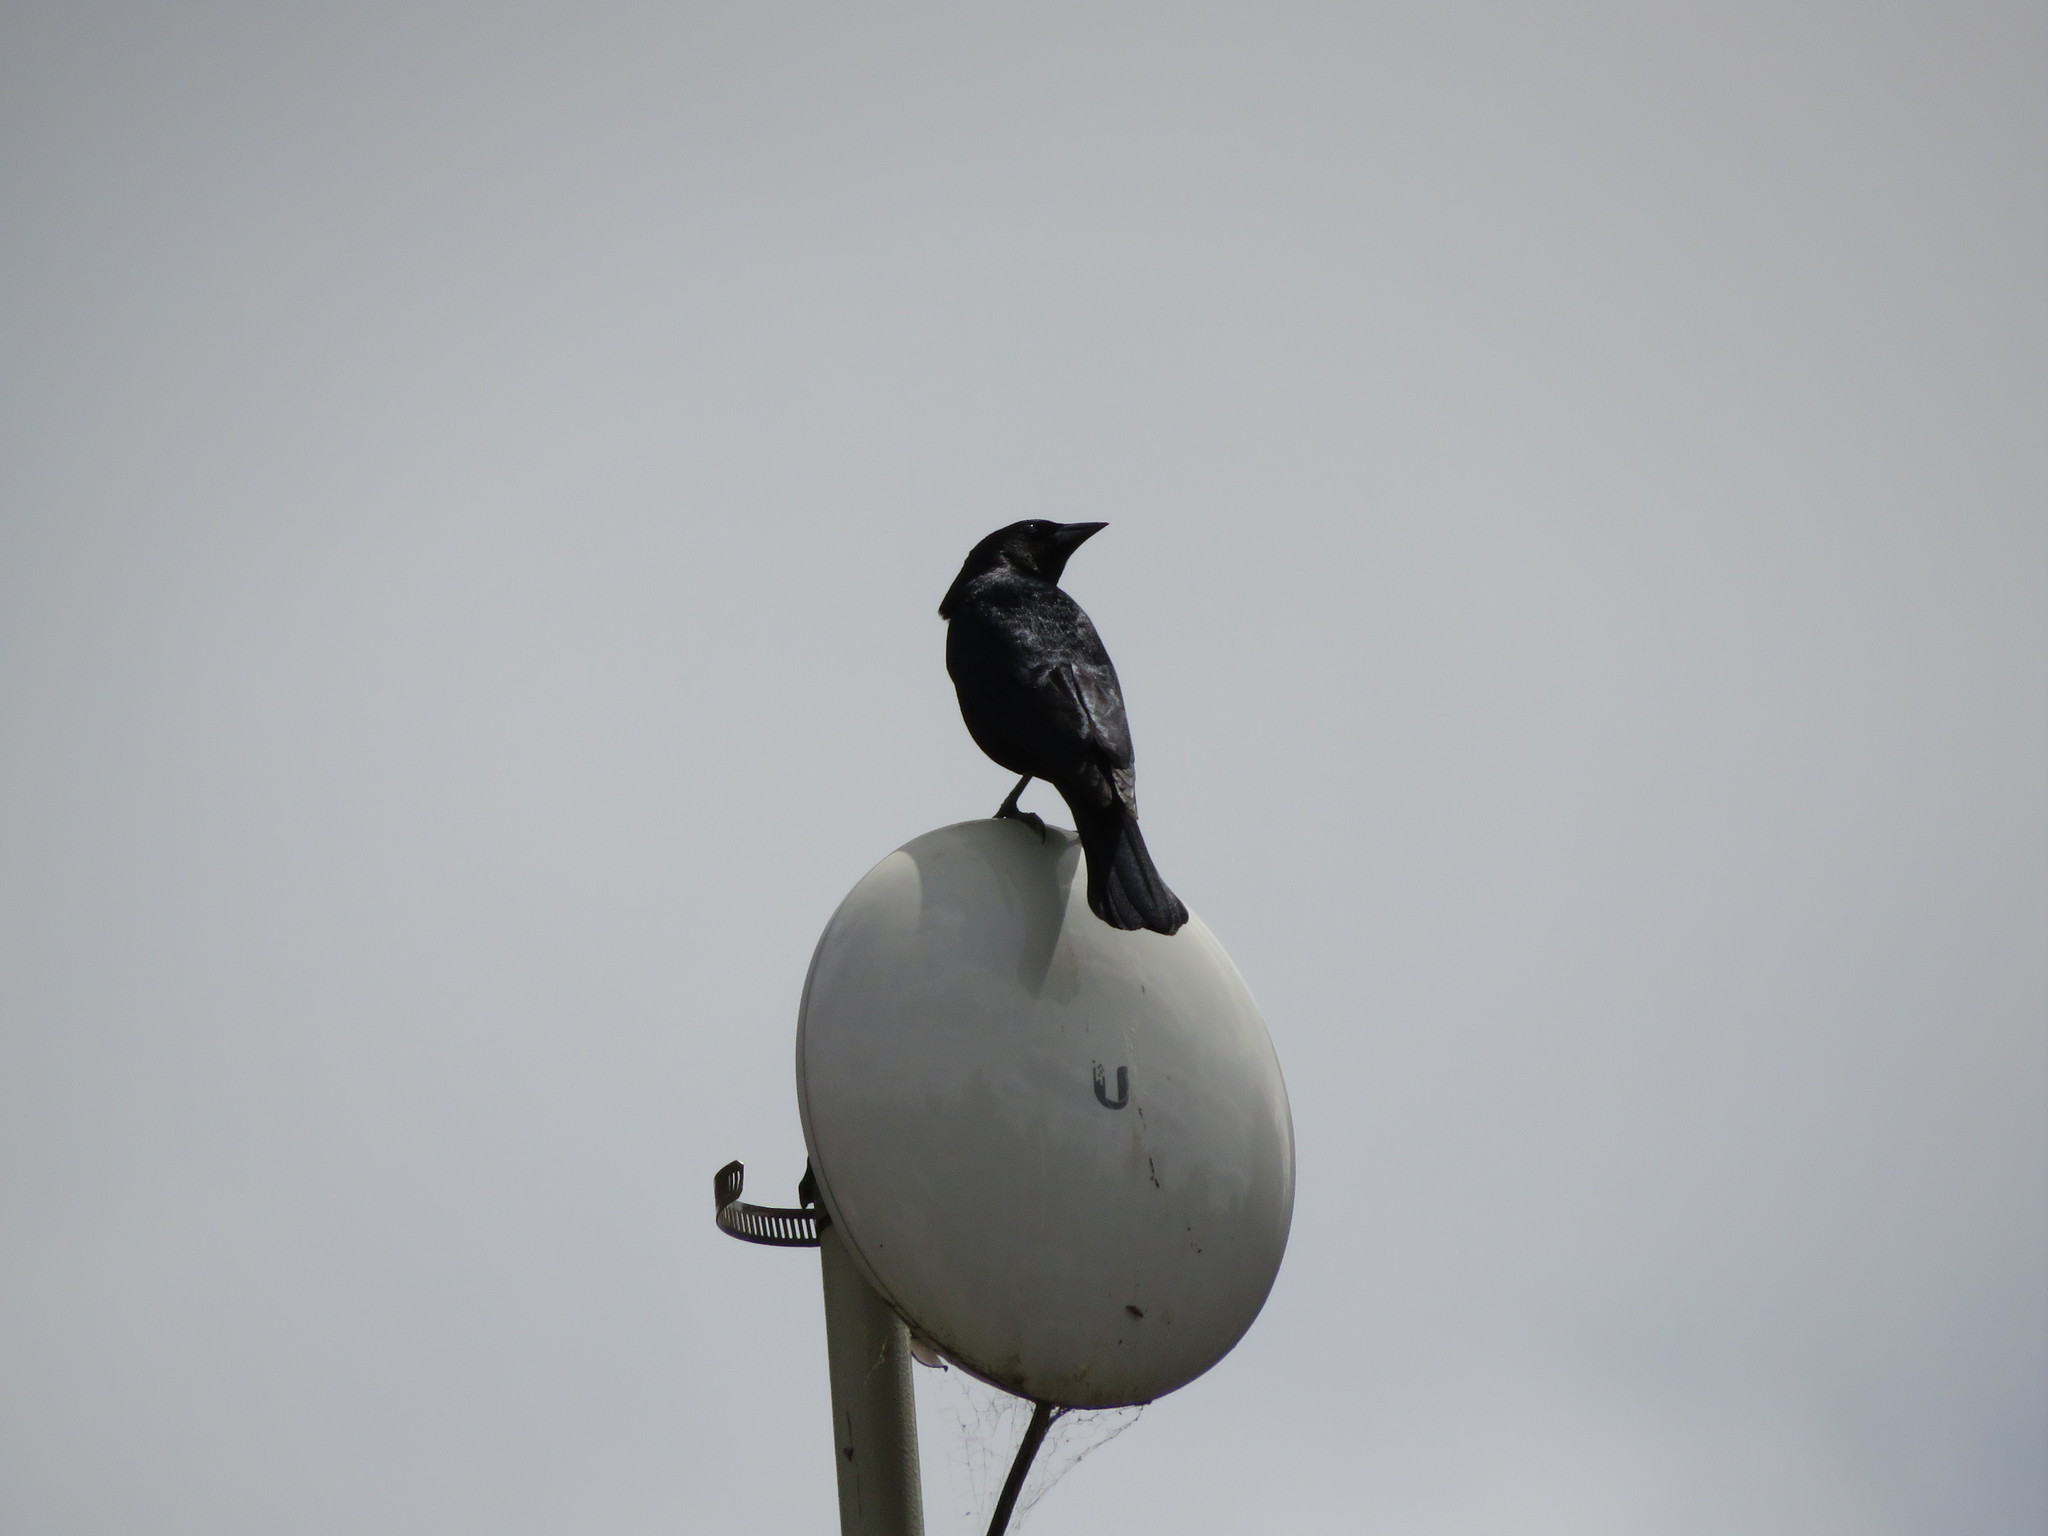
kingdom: Animalia
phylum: Chordata
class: Aves
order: Passeriformes
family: Icteridae
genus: Molothrus
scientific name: Molothrus bonariensis
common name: Shiny cowbird
